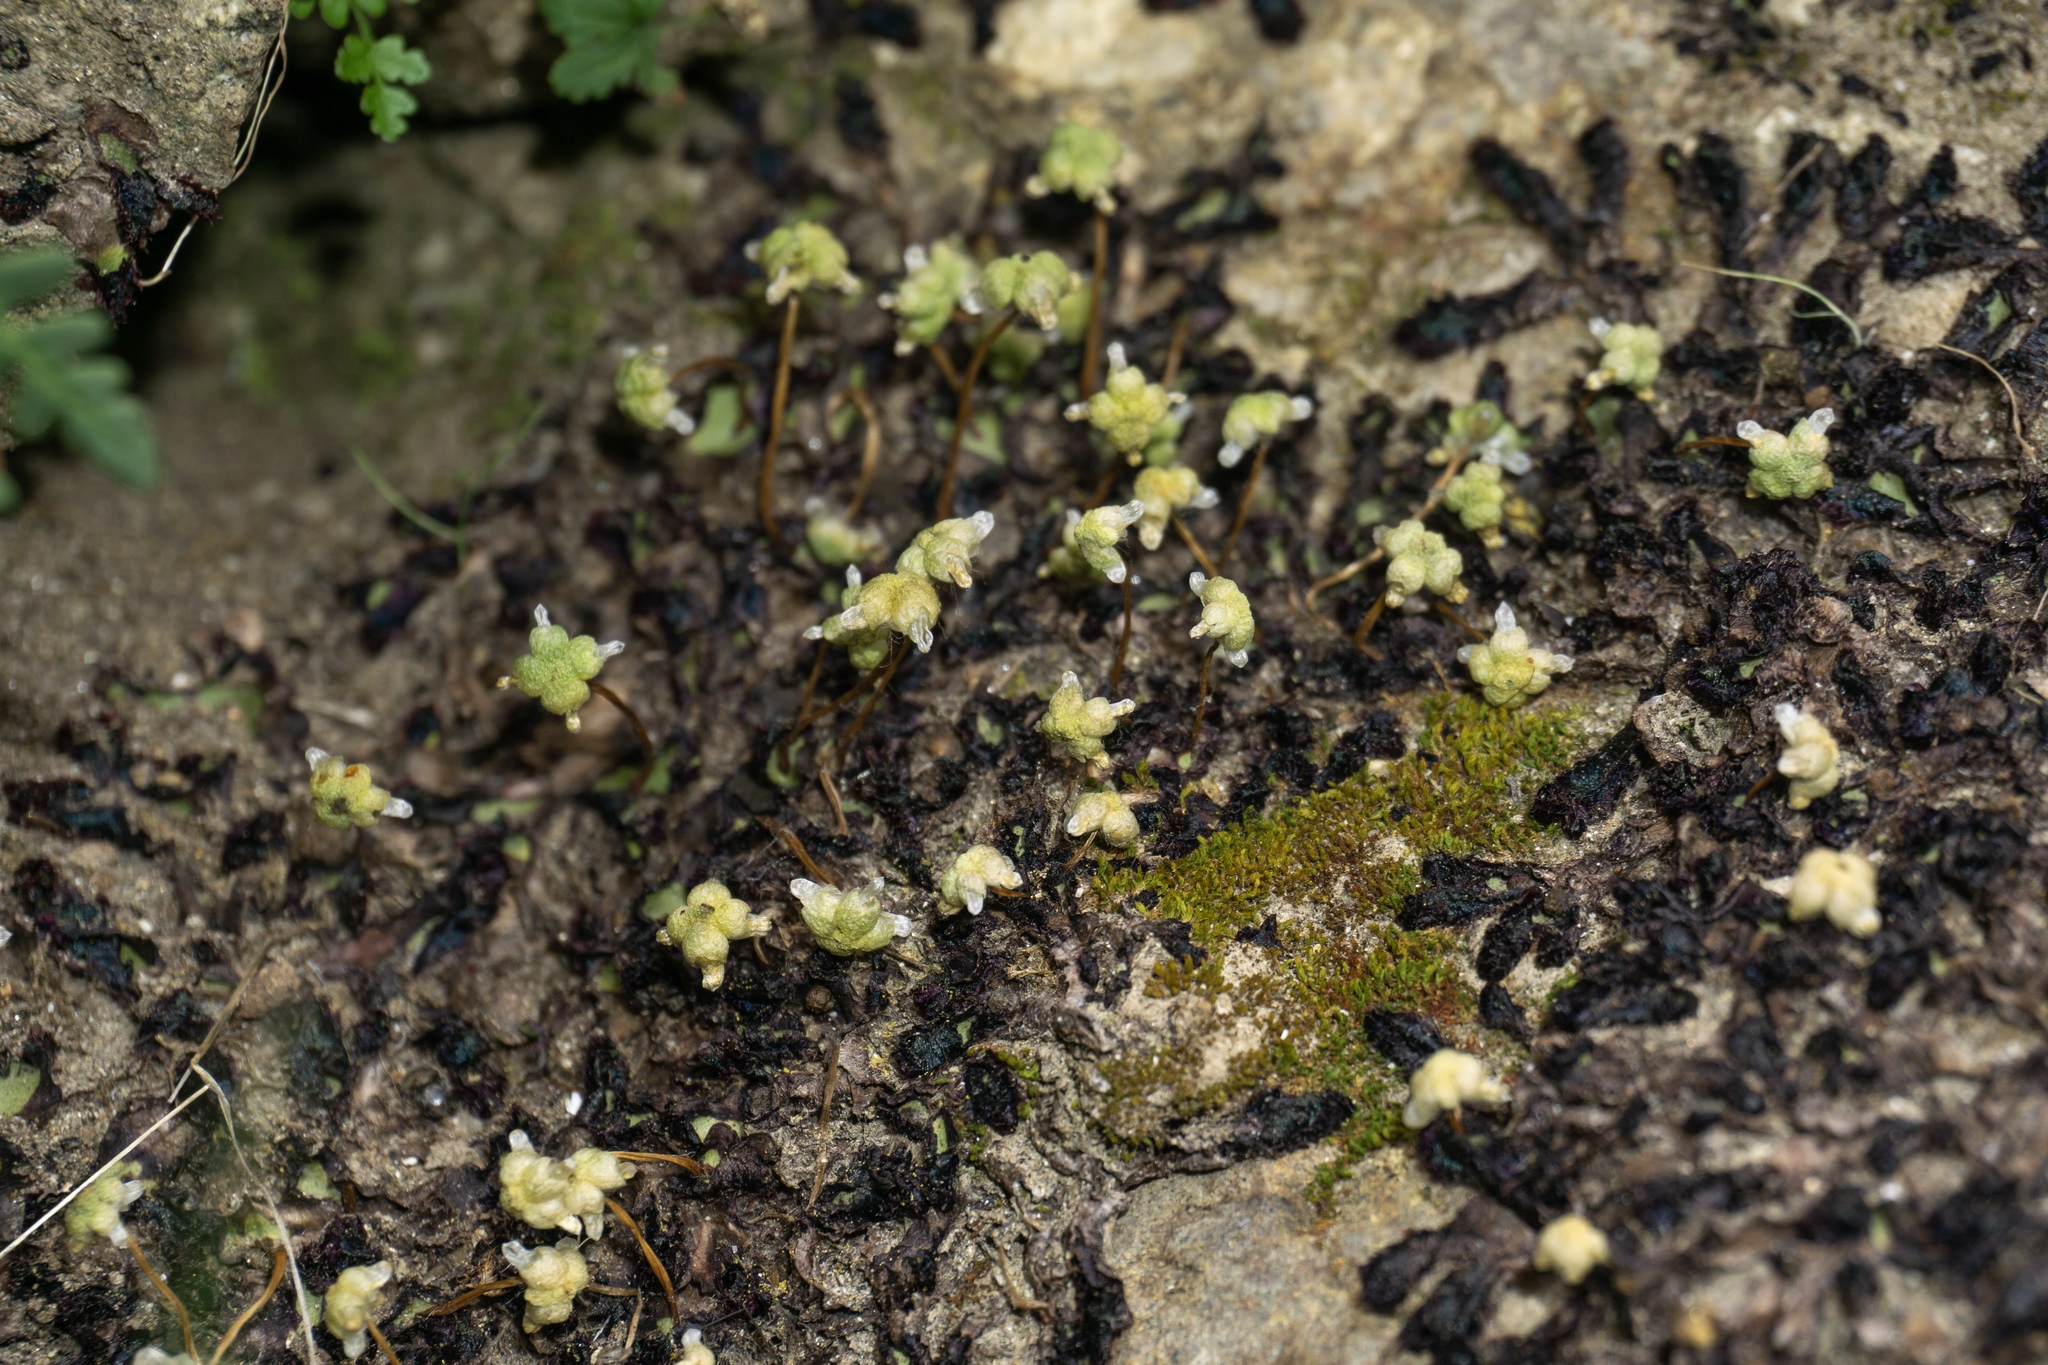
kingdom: Plantae
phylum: Marchantiophyta
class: Marchantiopsida
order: Marchantiales
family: Aytoniaceae
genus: Asterella
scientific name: Asterella californica
